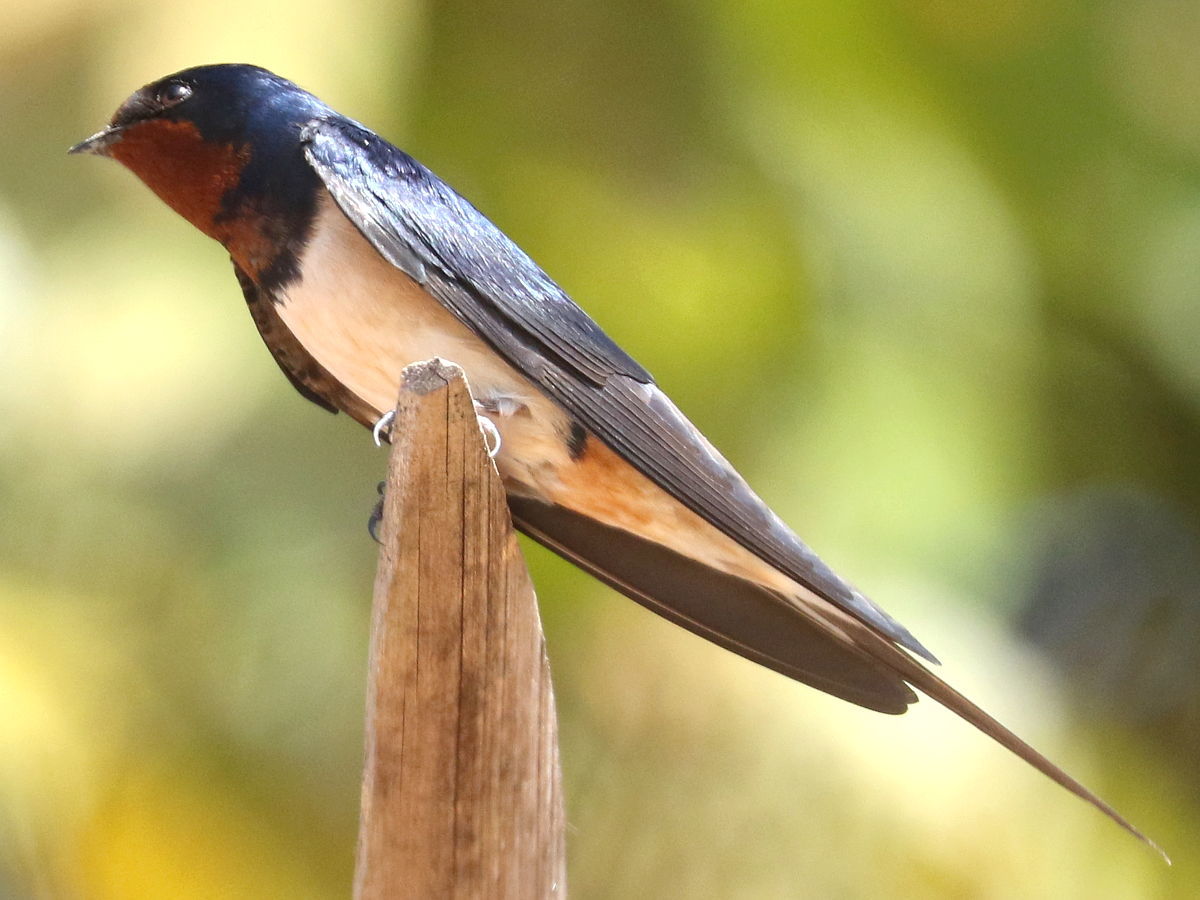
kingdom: Animalia
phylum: Chordata
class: Aves
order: Passeriformes
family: Hirundinidae
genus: Hirundo
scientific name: Hirundo rustica
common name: Barn swallow
